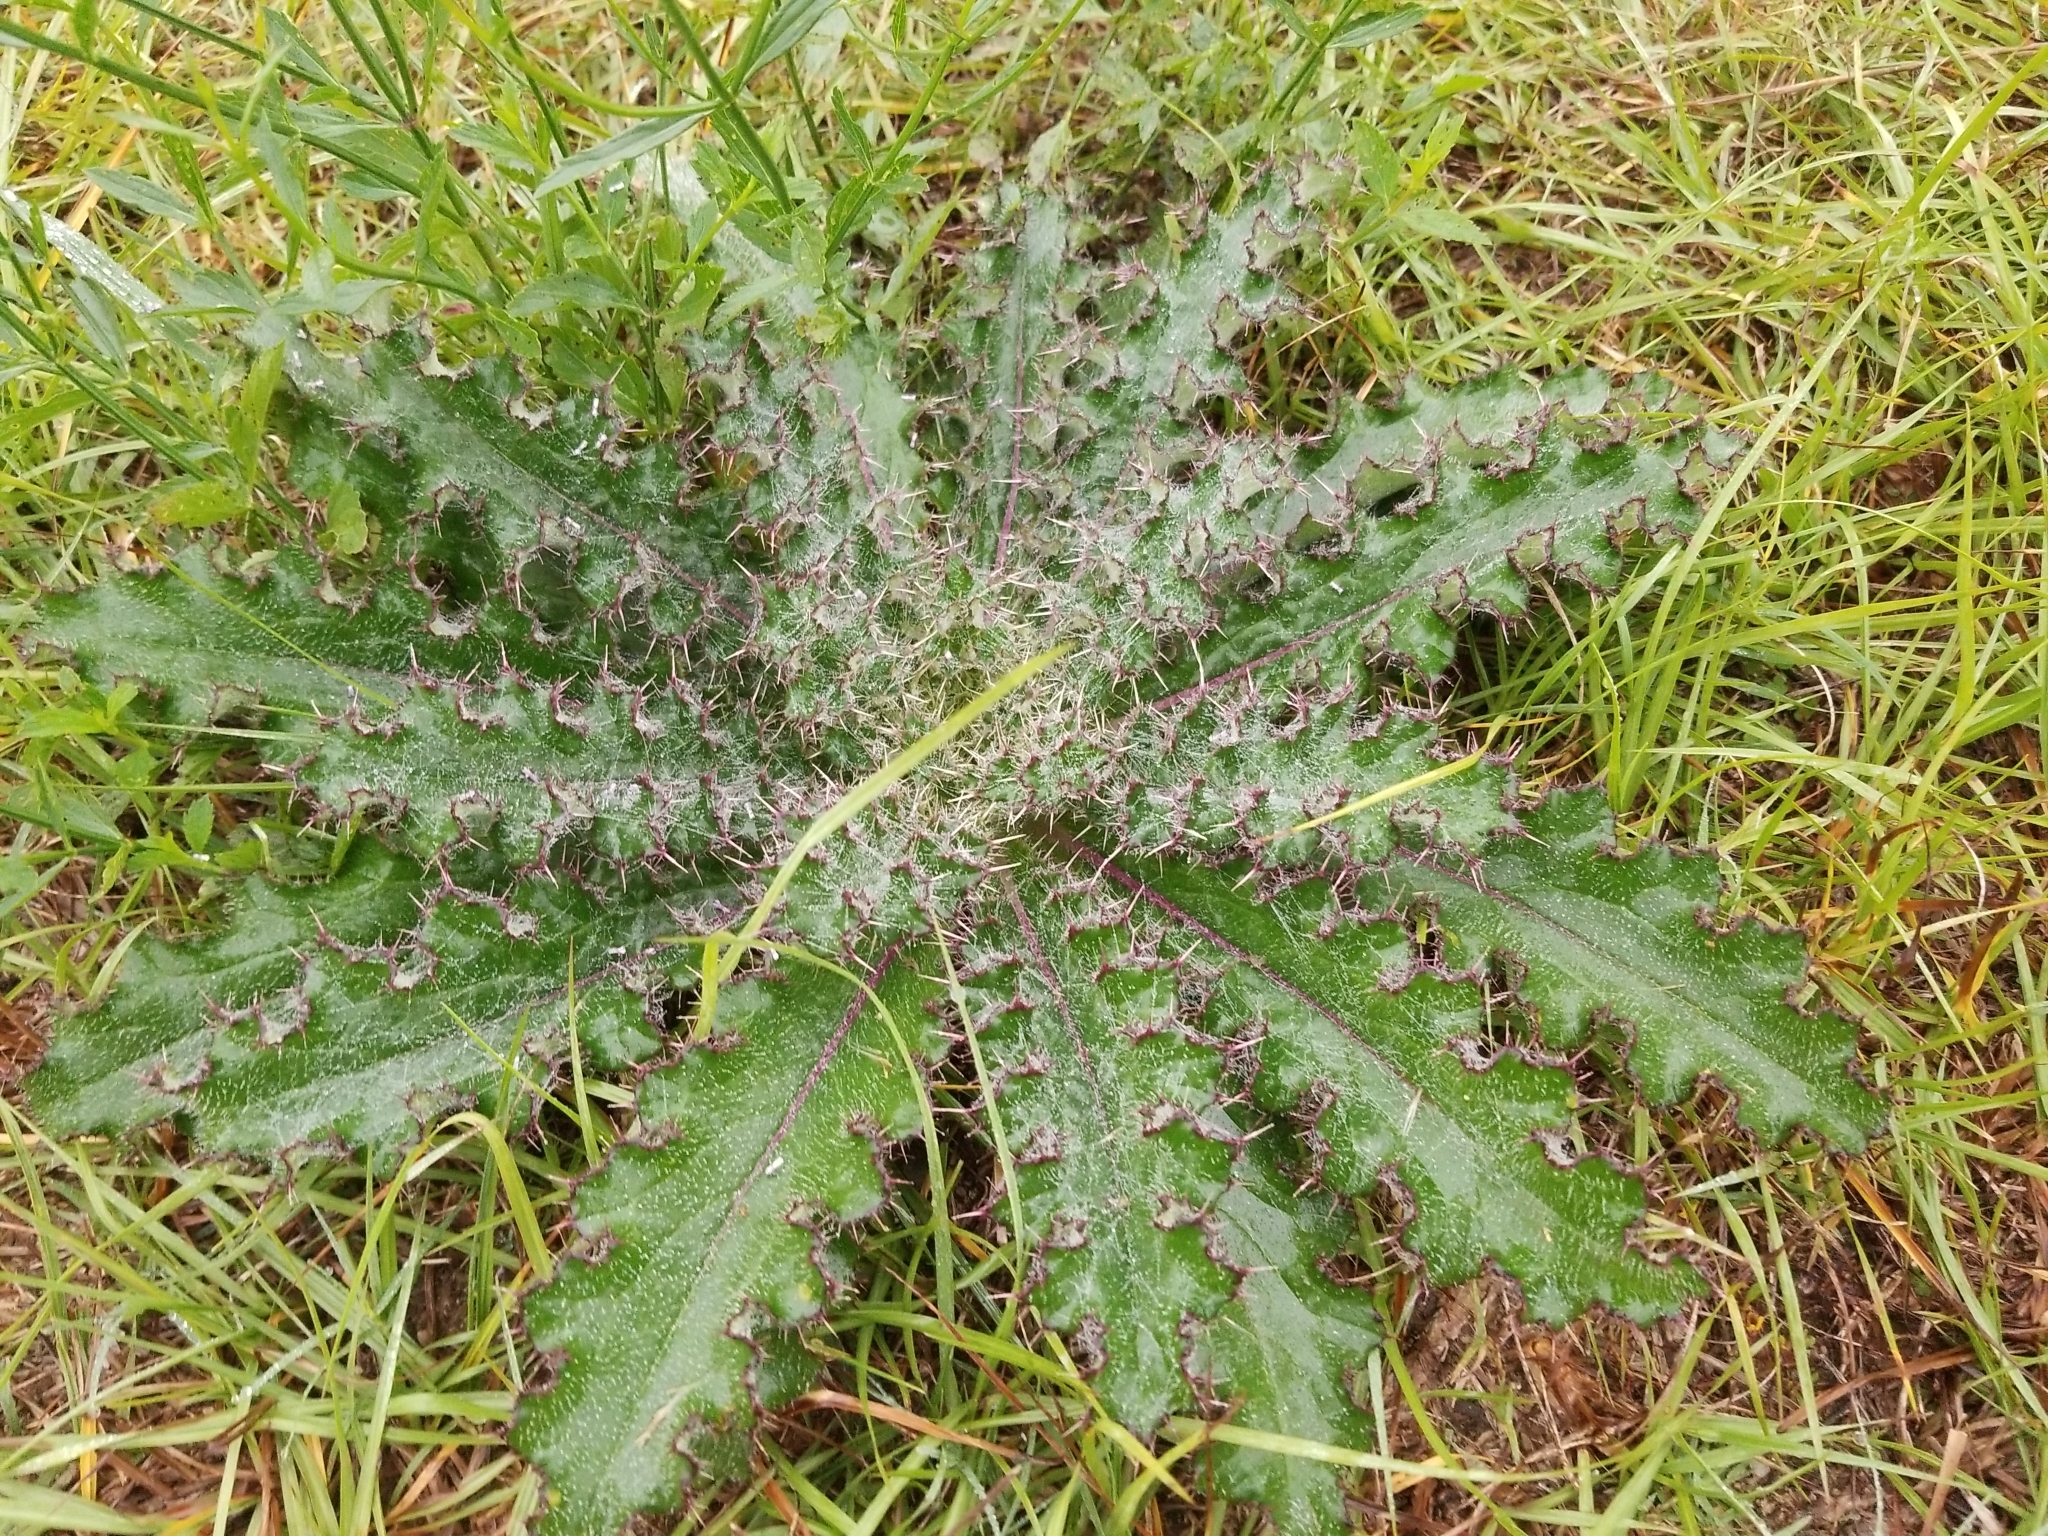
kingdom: Plantae
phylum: Tracheophyta
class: Magnoliopsida
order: Asterales
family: Asteraceae
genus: Cirsium
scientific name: Cirsium horridulum
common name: Bristly thistle
